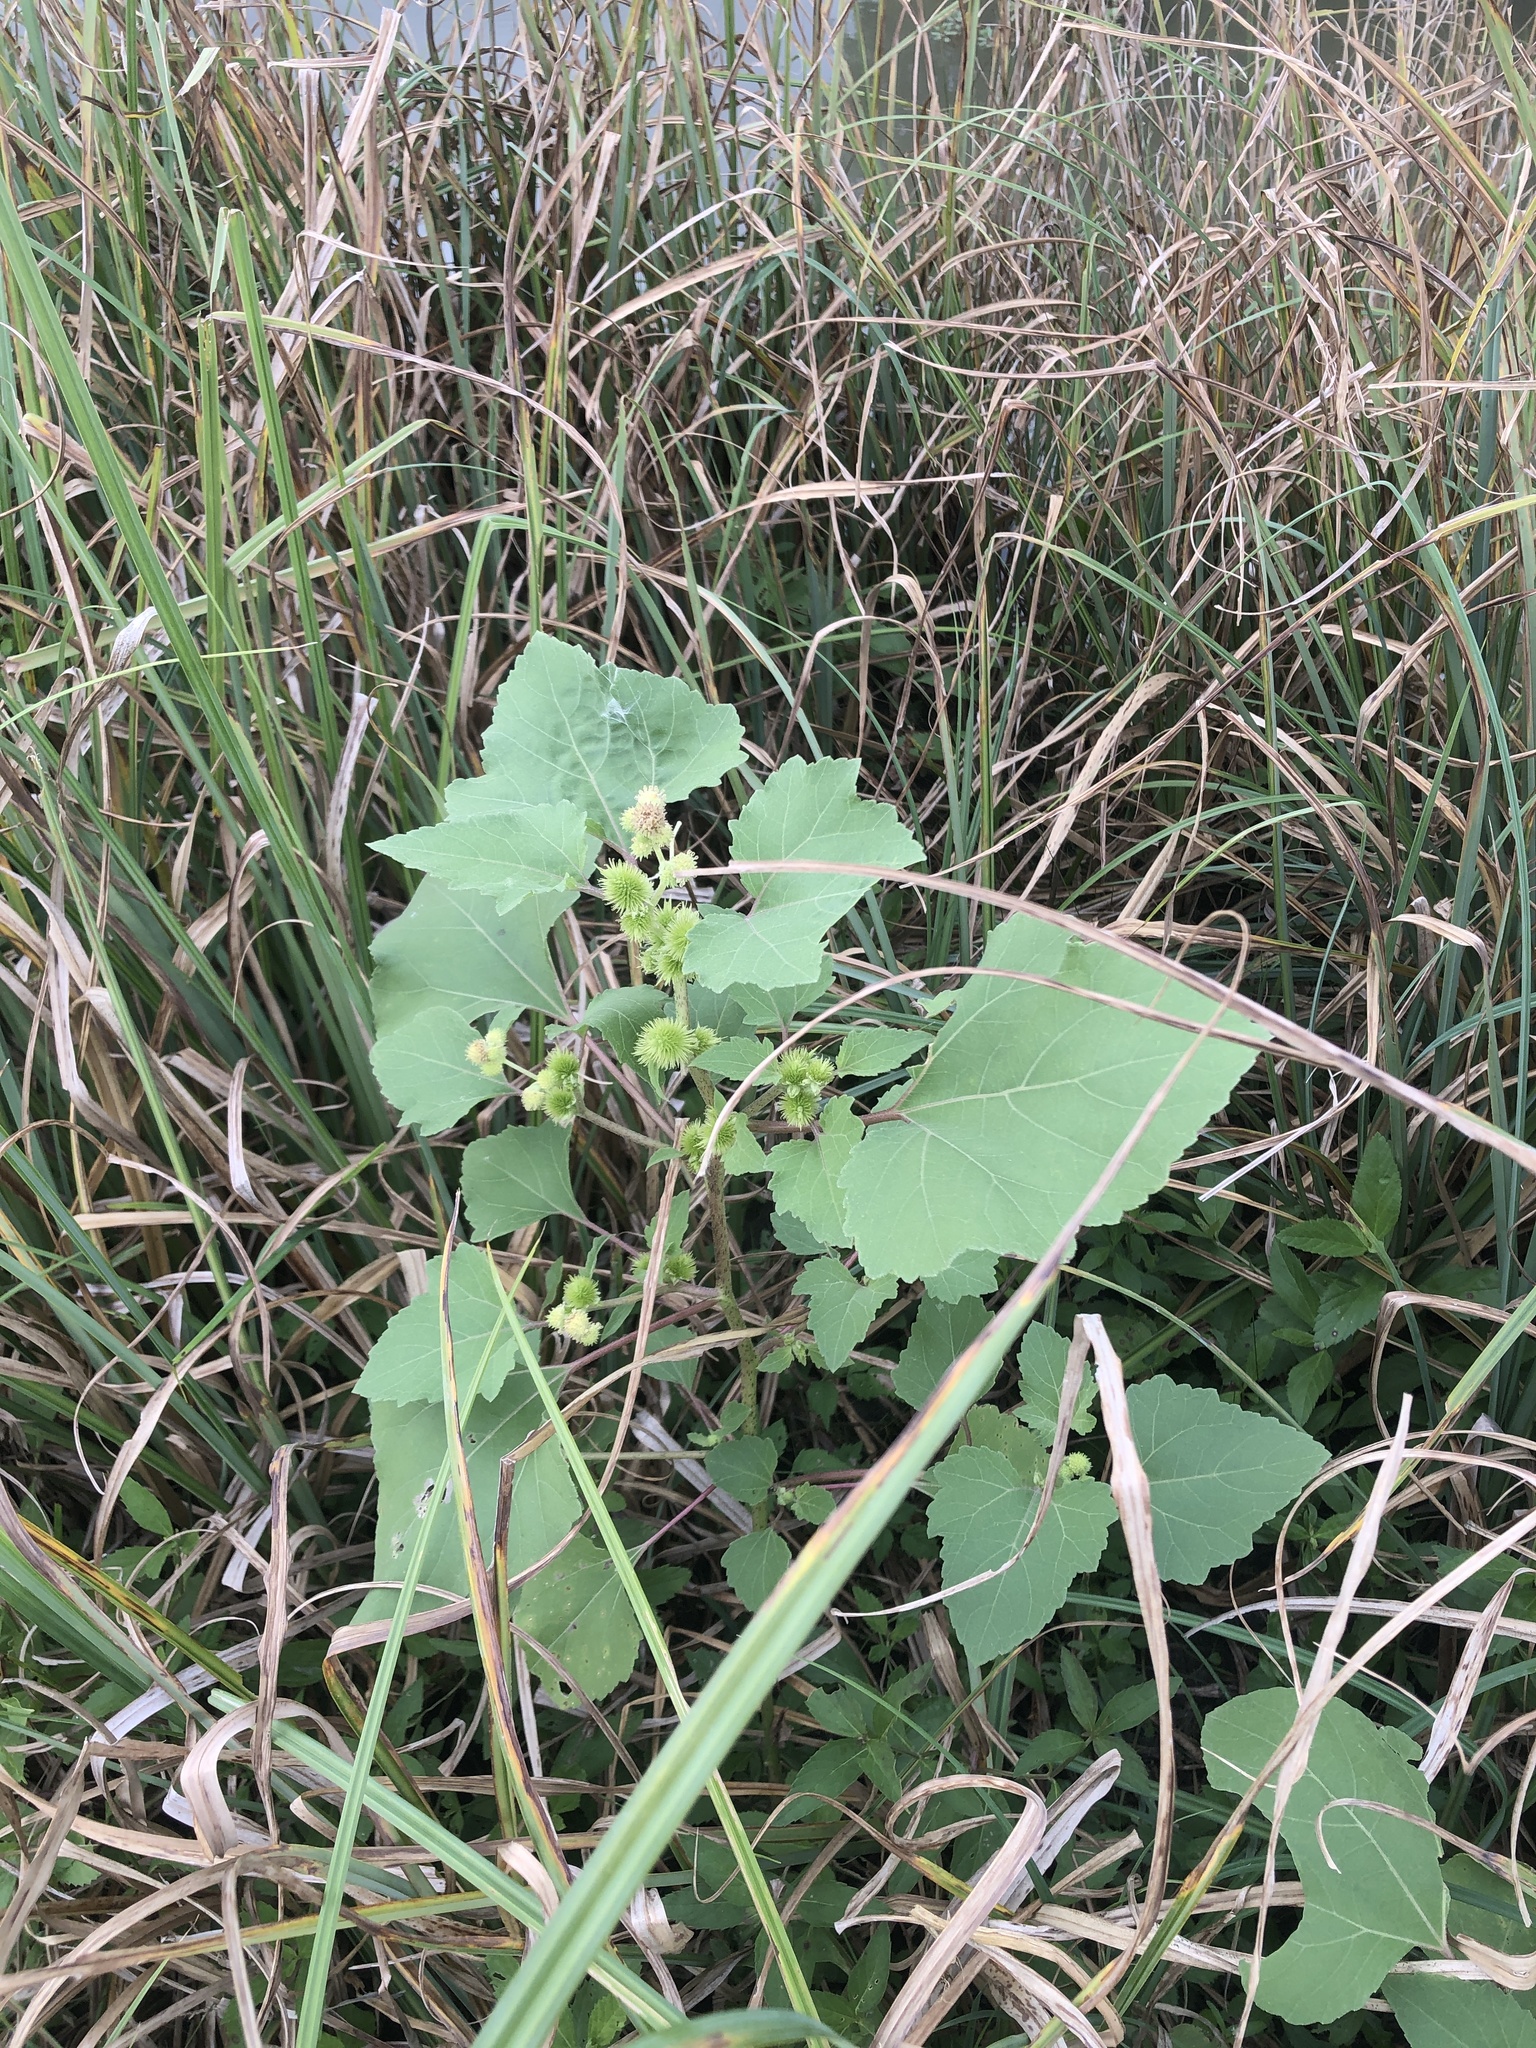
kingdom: Plantae
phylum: Tracheophyta
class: Magnoliopsida
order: Asterales
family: Asteraceae
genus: Xanthium
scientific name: Xanthium strumarium
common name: Rough cocklebur
